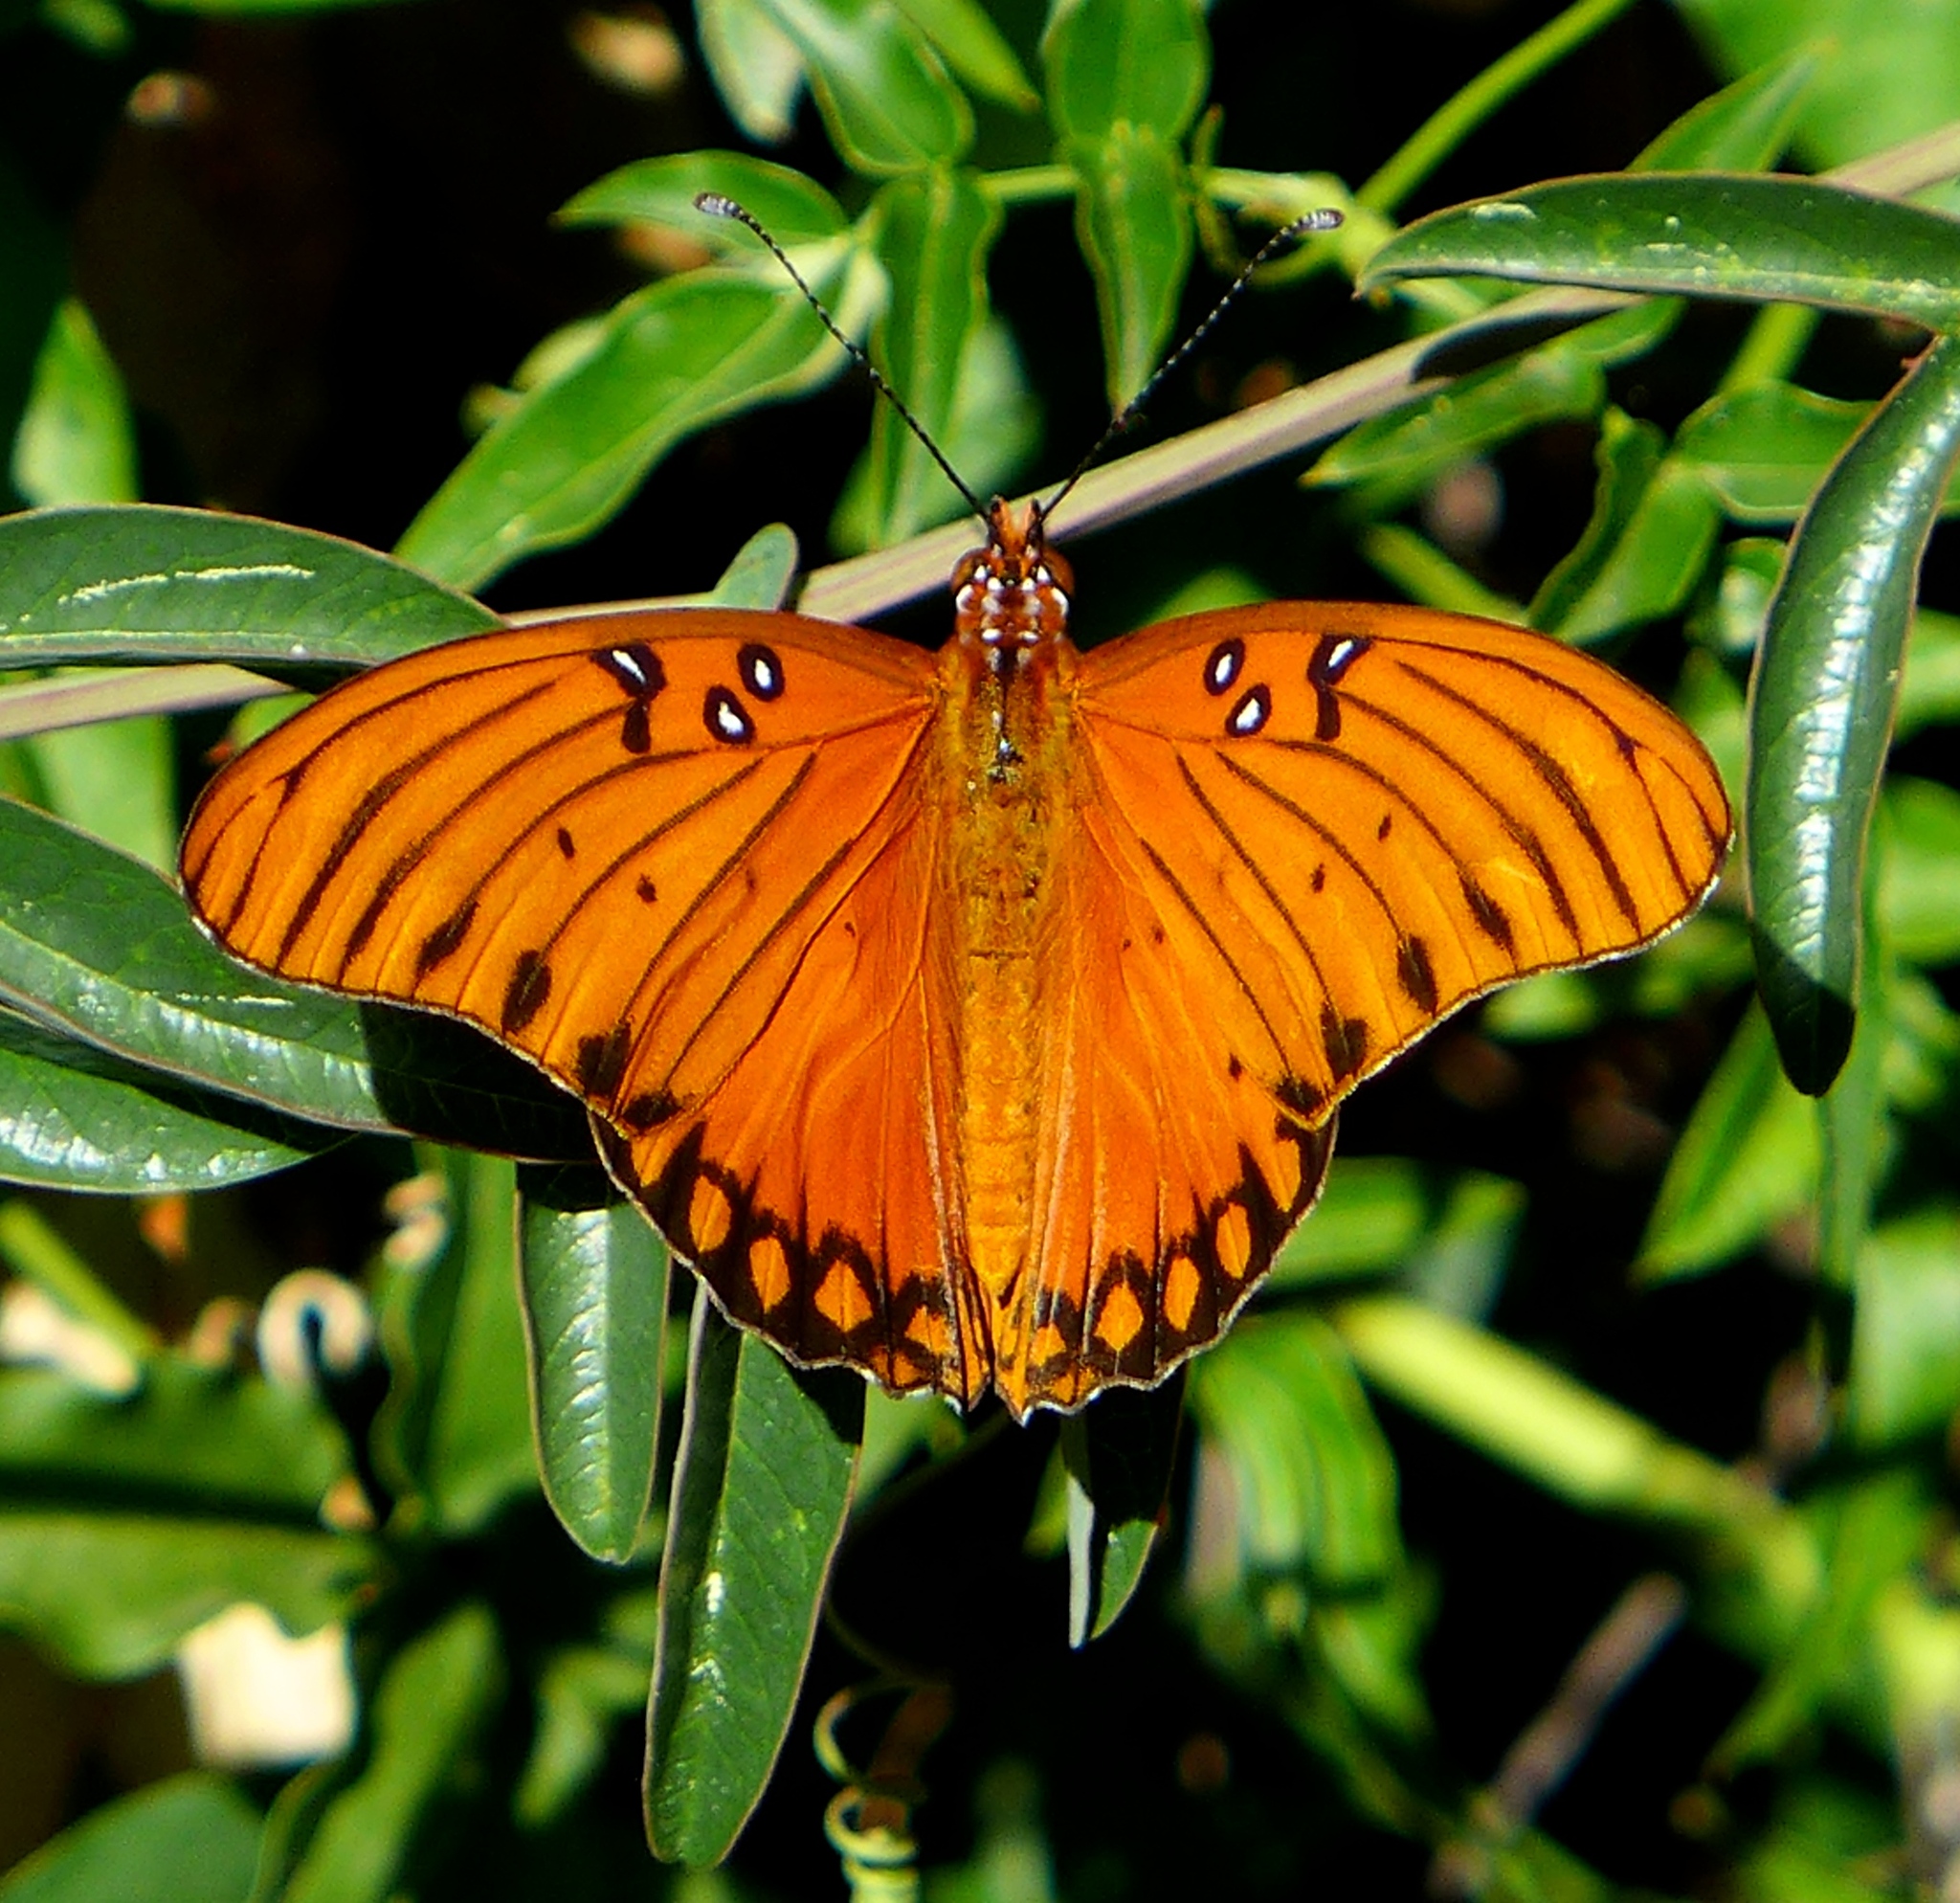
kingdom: Animalia
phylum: Arthropoda
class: Insecta
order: Lepidoptera
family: Nymphalidae
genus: Dione
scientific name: Dione vanillae
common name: Gulf fritillary
